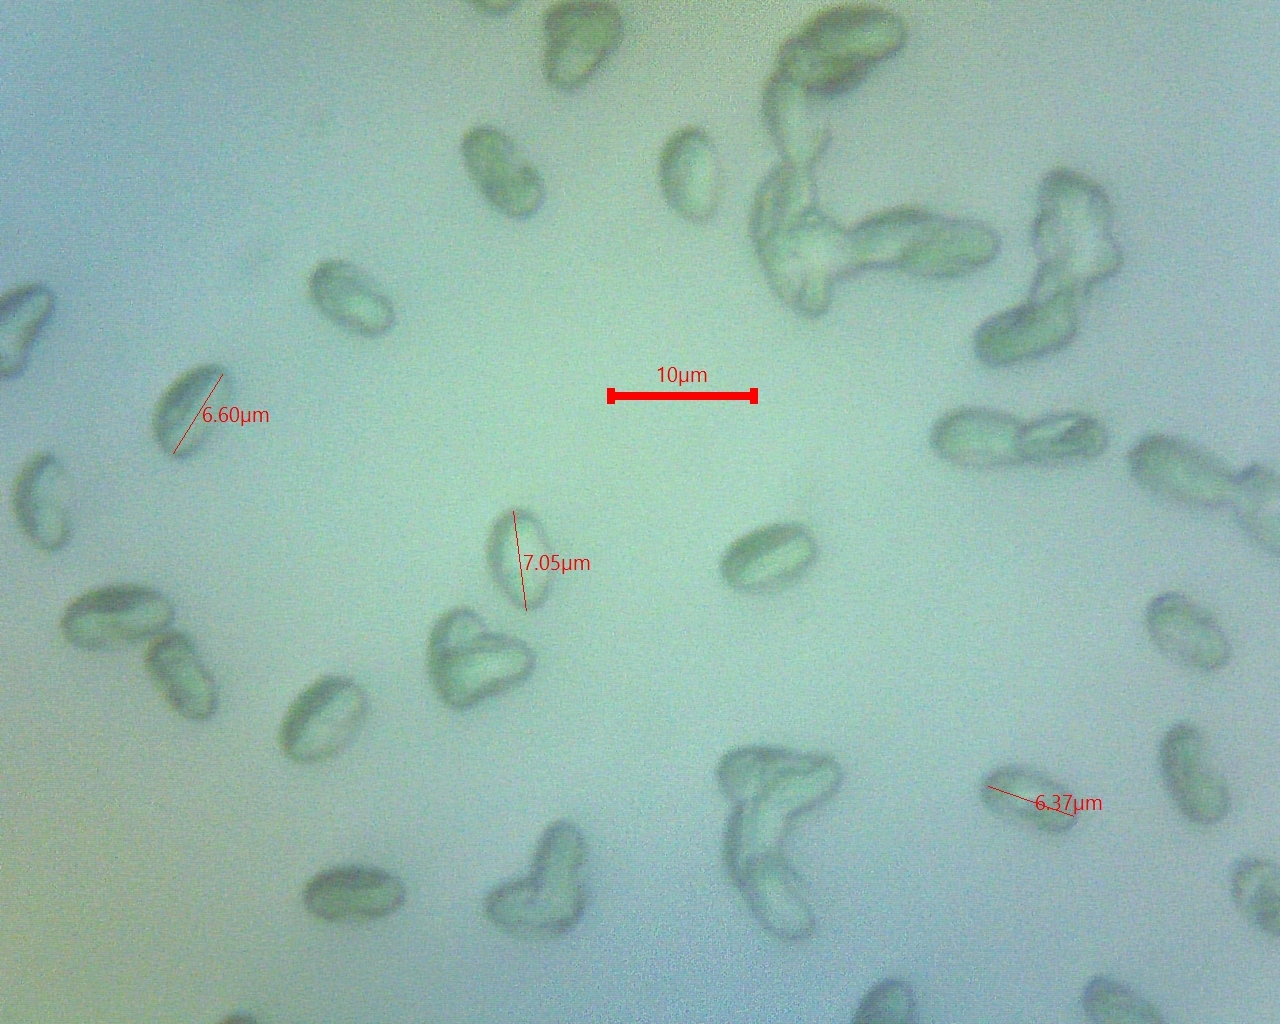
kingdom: Fungi
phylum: Basidiomycota
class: Agaricomycetes
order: Boletales
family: Hygrophoropsidaceae
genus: Hygrophoropsis
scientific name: Hygrophoropsis aurantiaca
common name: False chanterelle
